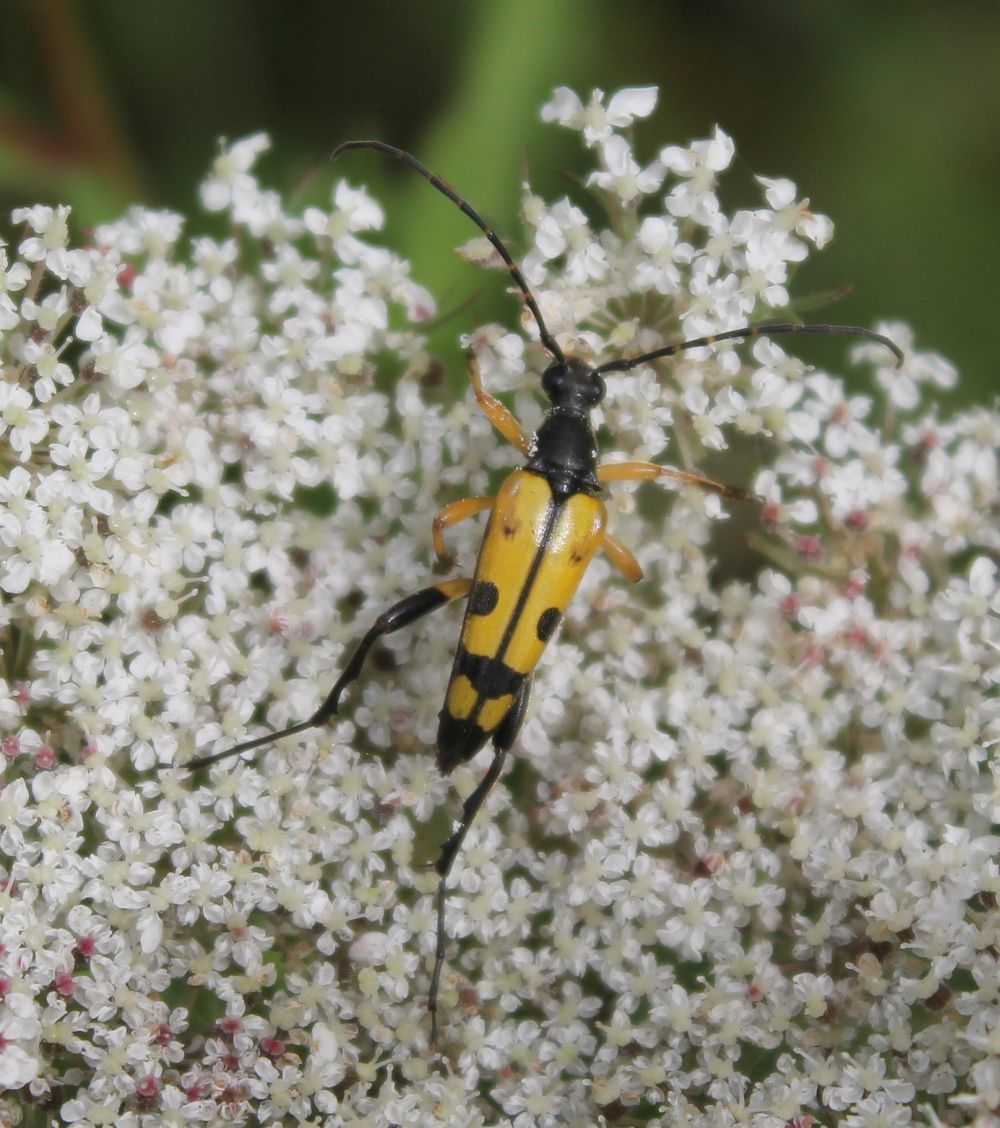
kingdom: Animalia
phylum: Arthropoda
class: Insecta
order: Coleoptera
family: Cerambycidae
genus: Rutpela
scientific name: Rutpela maculata
